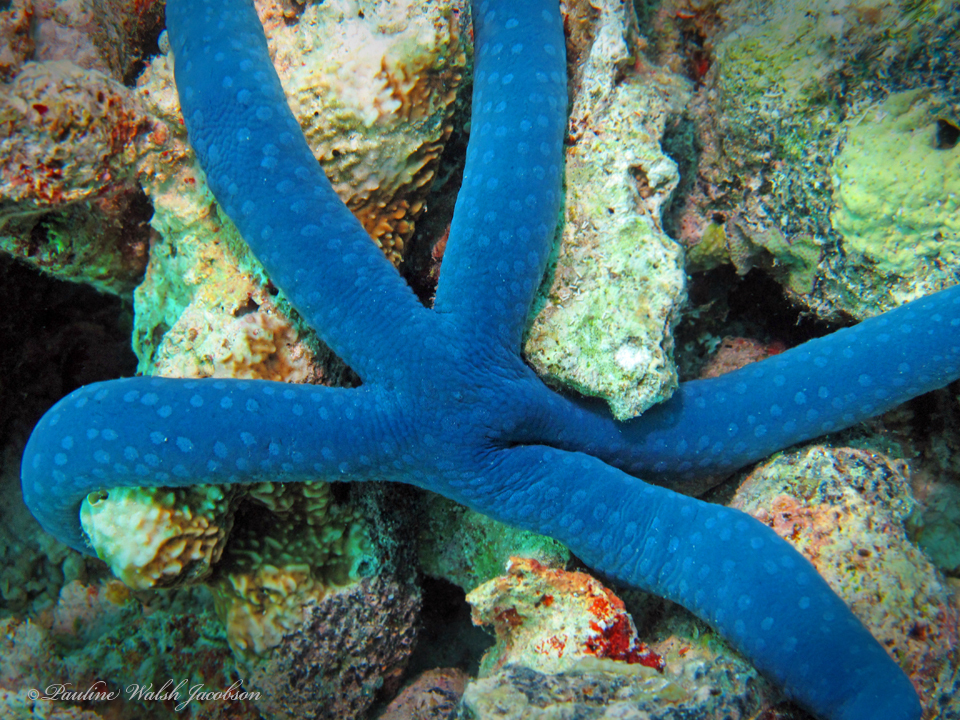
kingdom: Animalia
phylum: Echinodermata
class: Asteroidea
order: Valvatida
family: Ophidiasteridae
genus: Linckia
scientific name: Linckia laevigata
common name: Azure sea star
